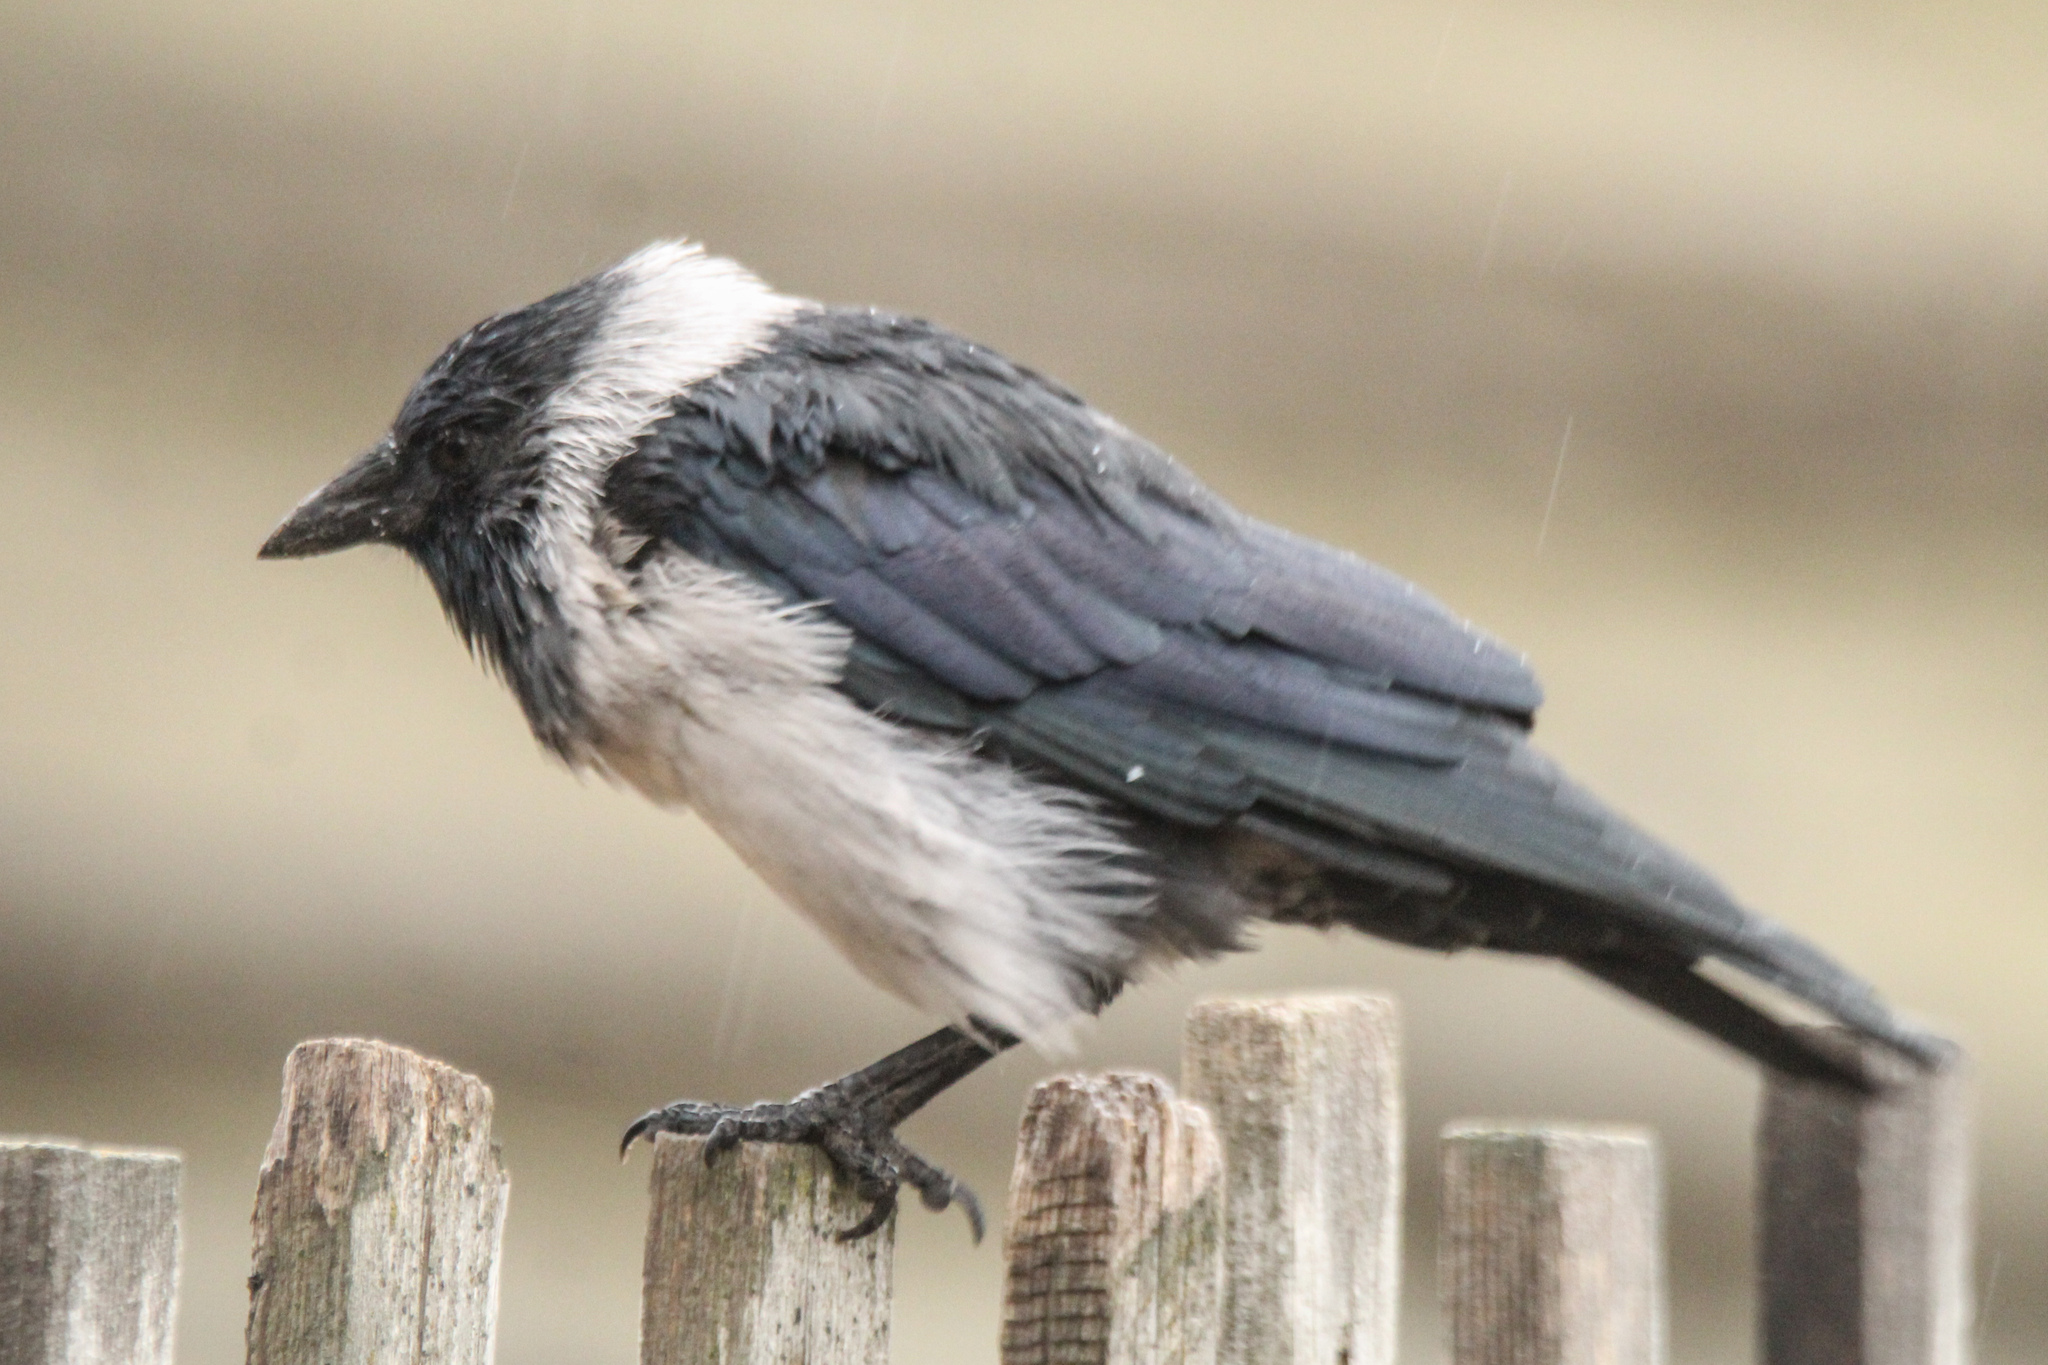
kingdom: Animalia
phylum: Chordata
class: Aves
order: Passeriformes
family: Corvidae
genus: Coloeus
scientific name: Coloeus dauuricus
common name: Daurian jackdaw
